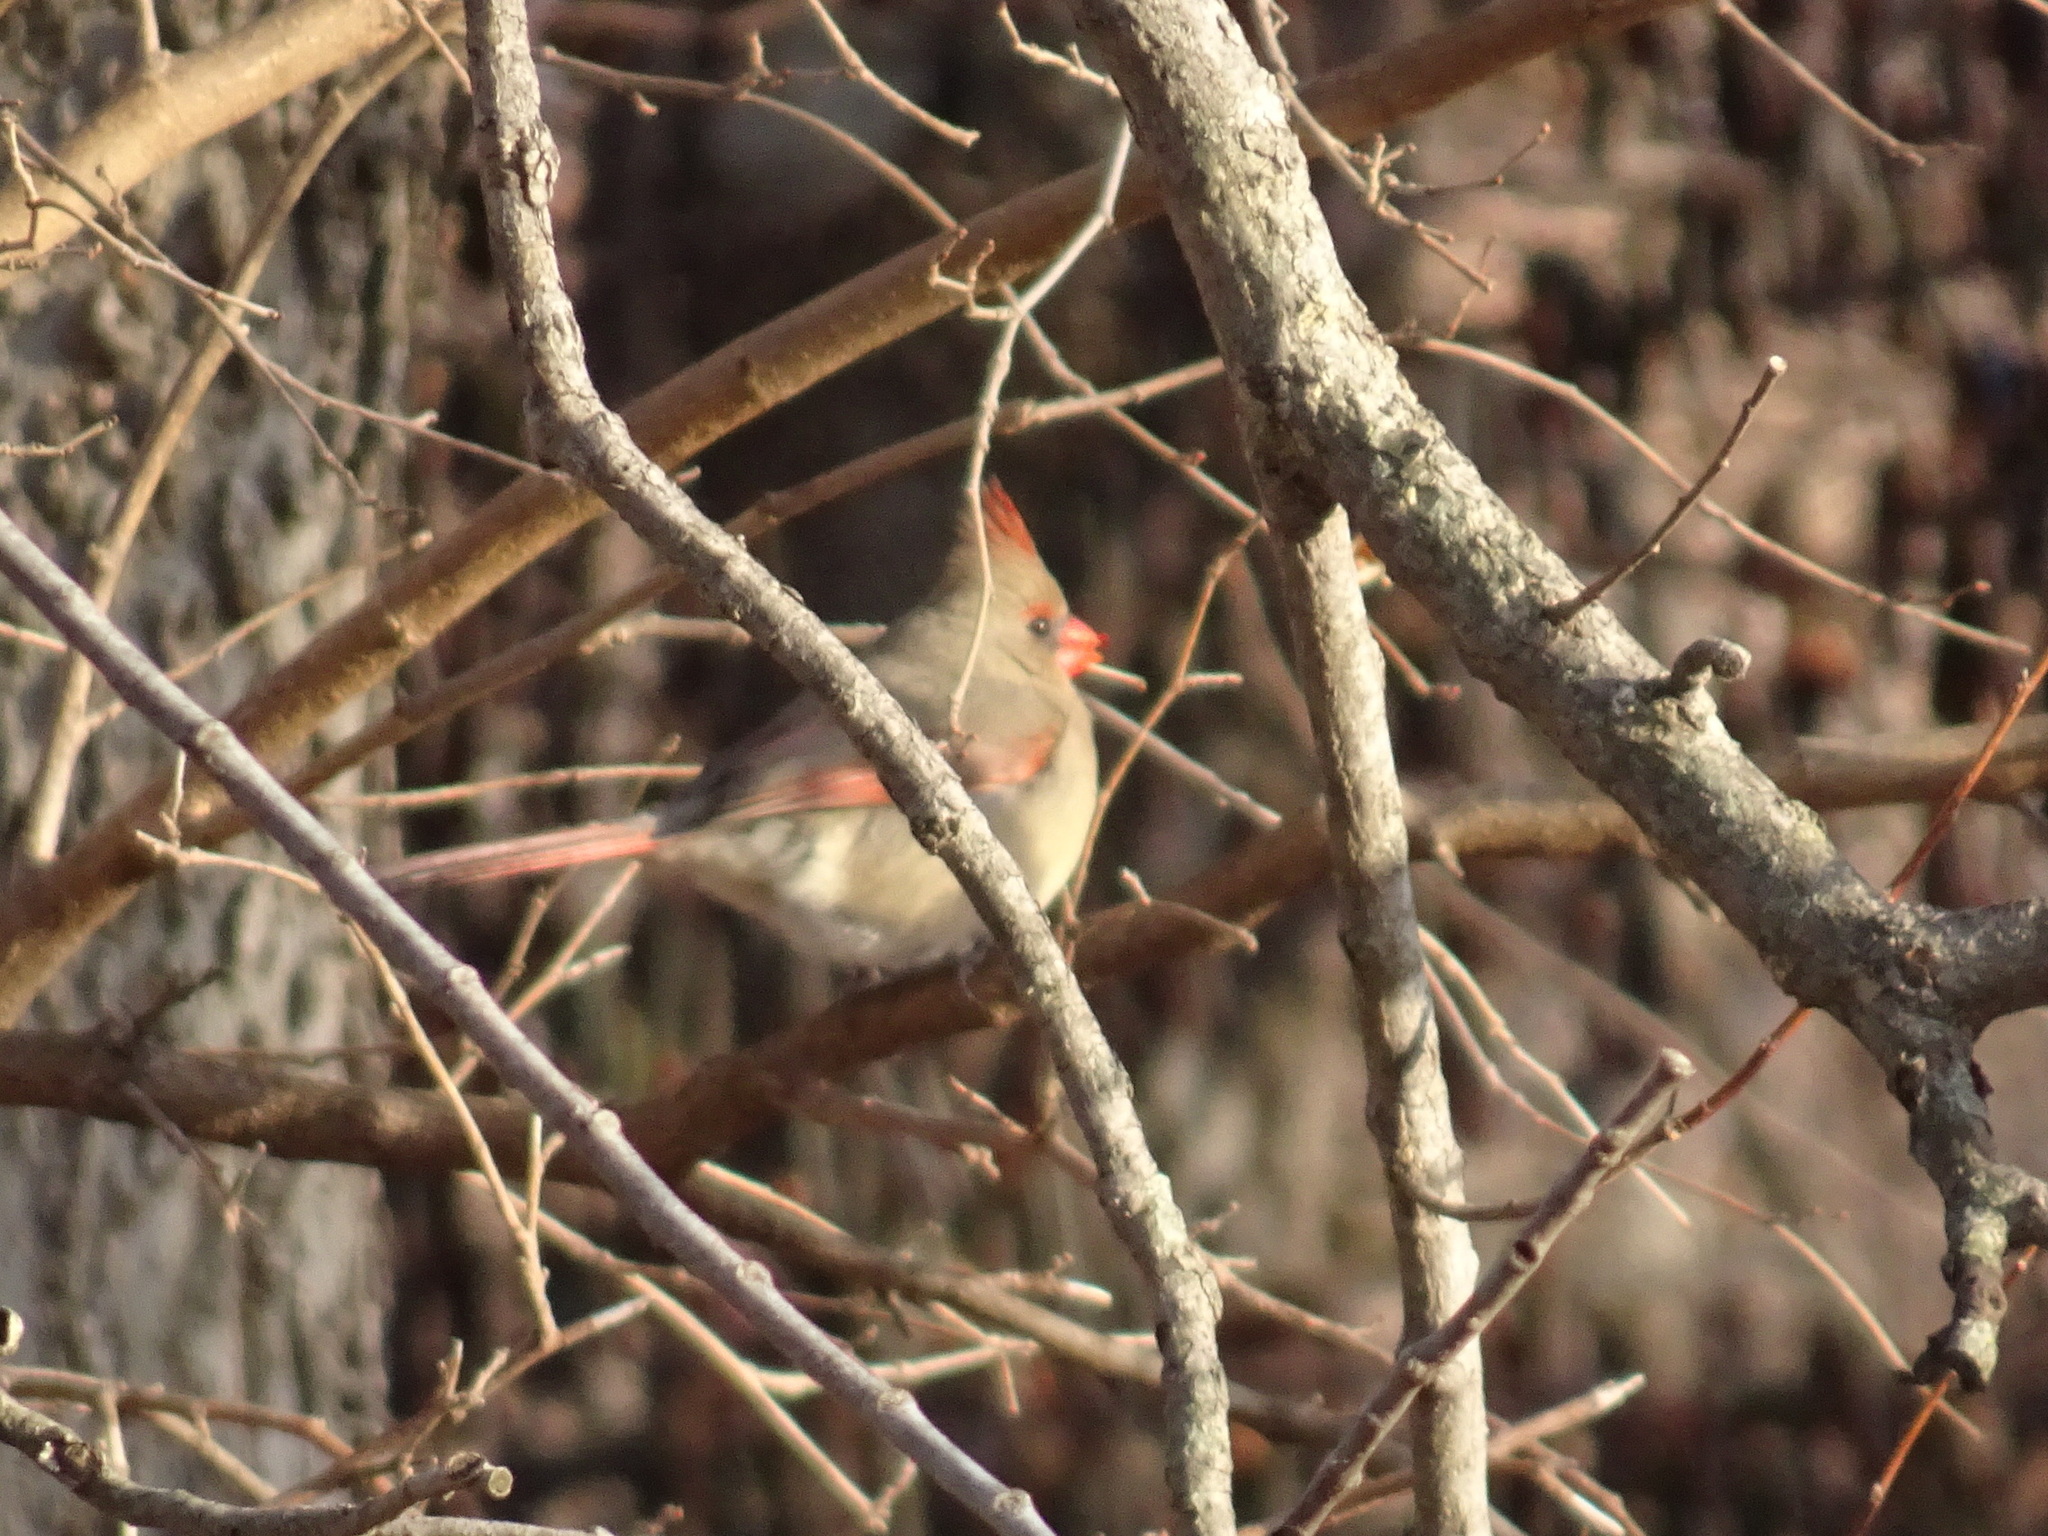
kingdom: Animalia
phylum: Chordata
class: Aves
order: Passeriformes
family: Cardinalidae
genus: Cardinalis
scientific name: Cardinalis cardinalis
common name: Northern cardinal
